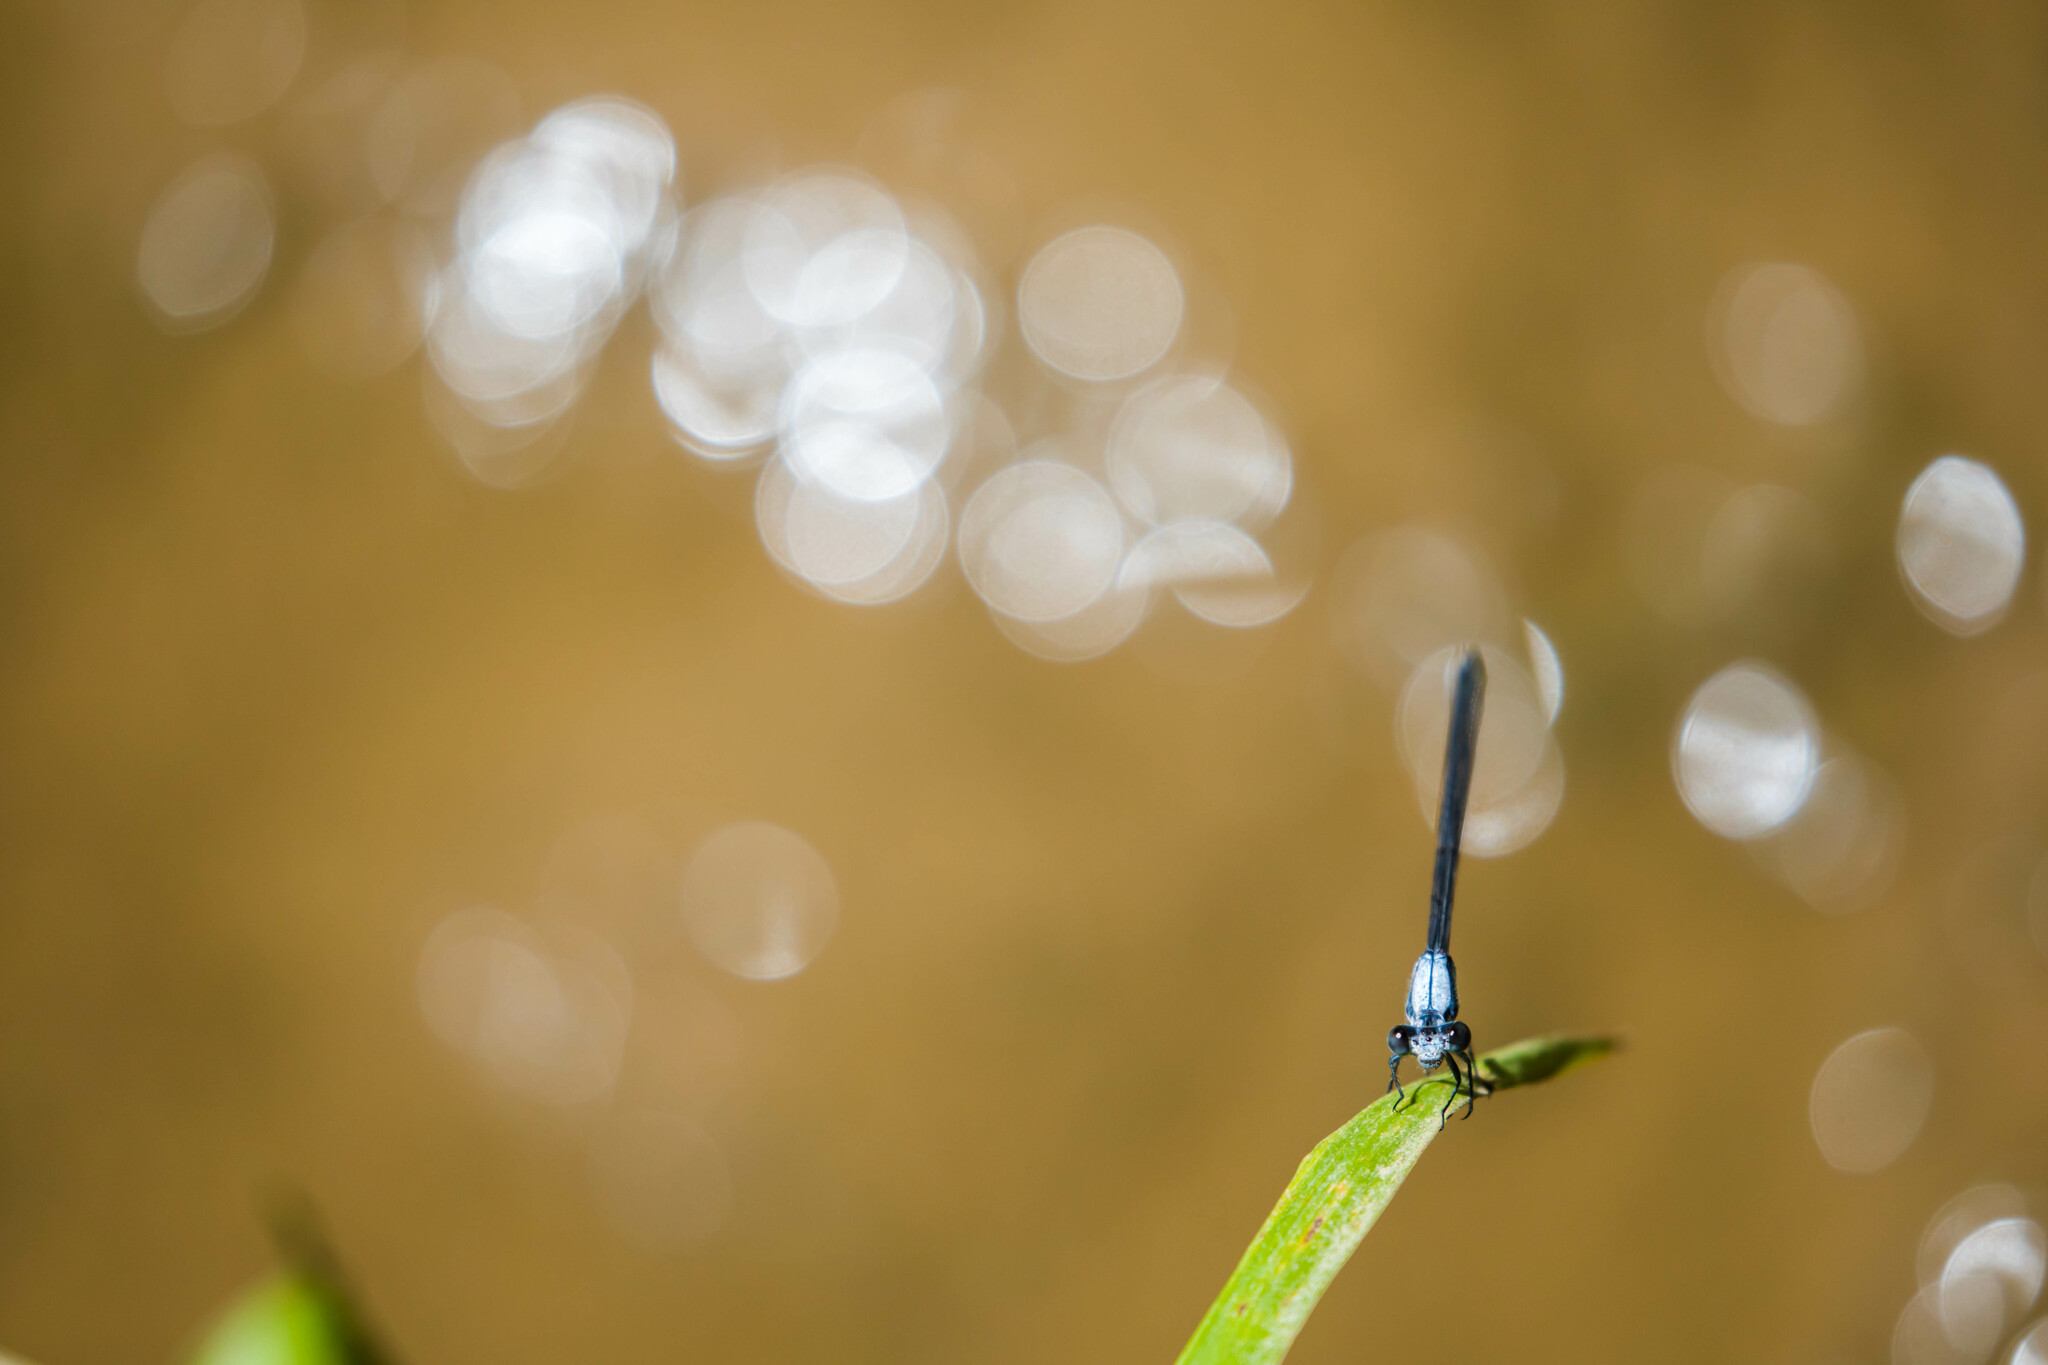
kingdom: Animalia
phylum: Arthropoda
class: Insecta
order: Odonata
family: Coenagrionidae
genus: Argia
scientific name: Argia moesta
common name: Powdered dancer
